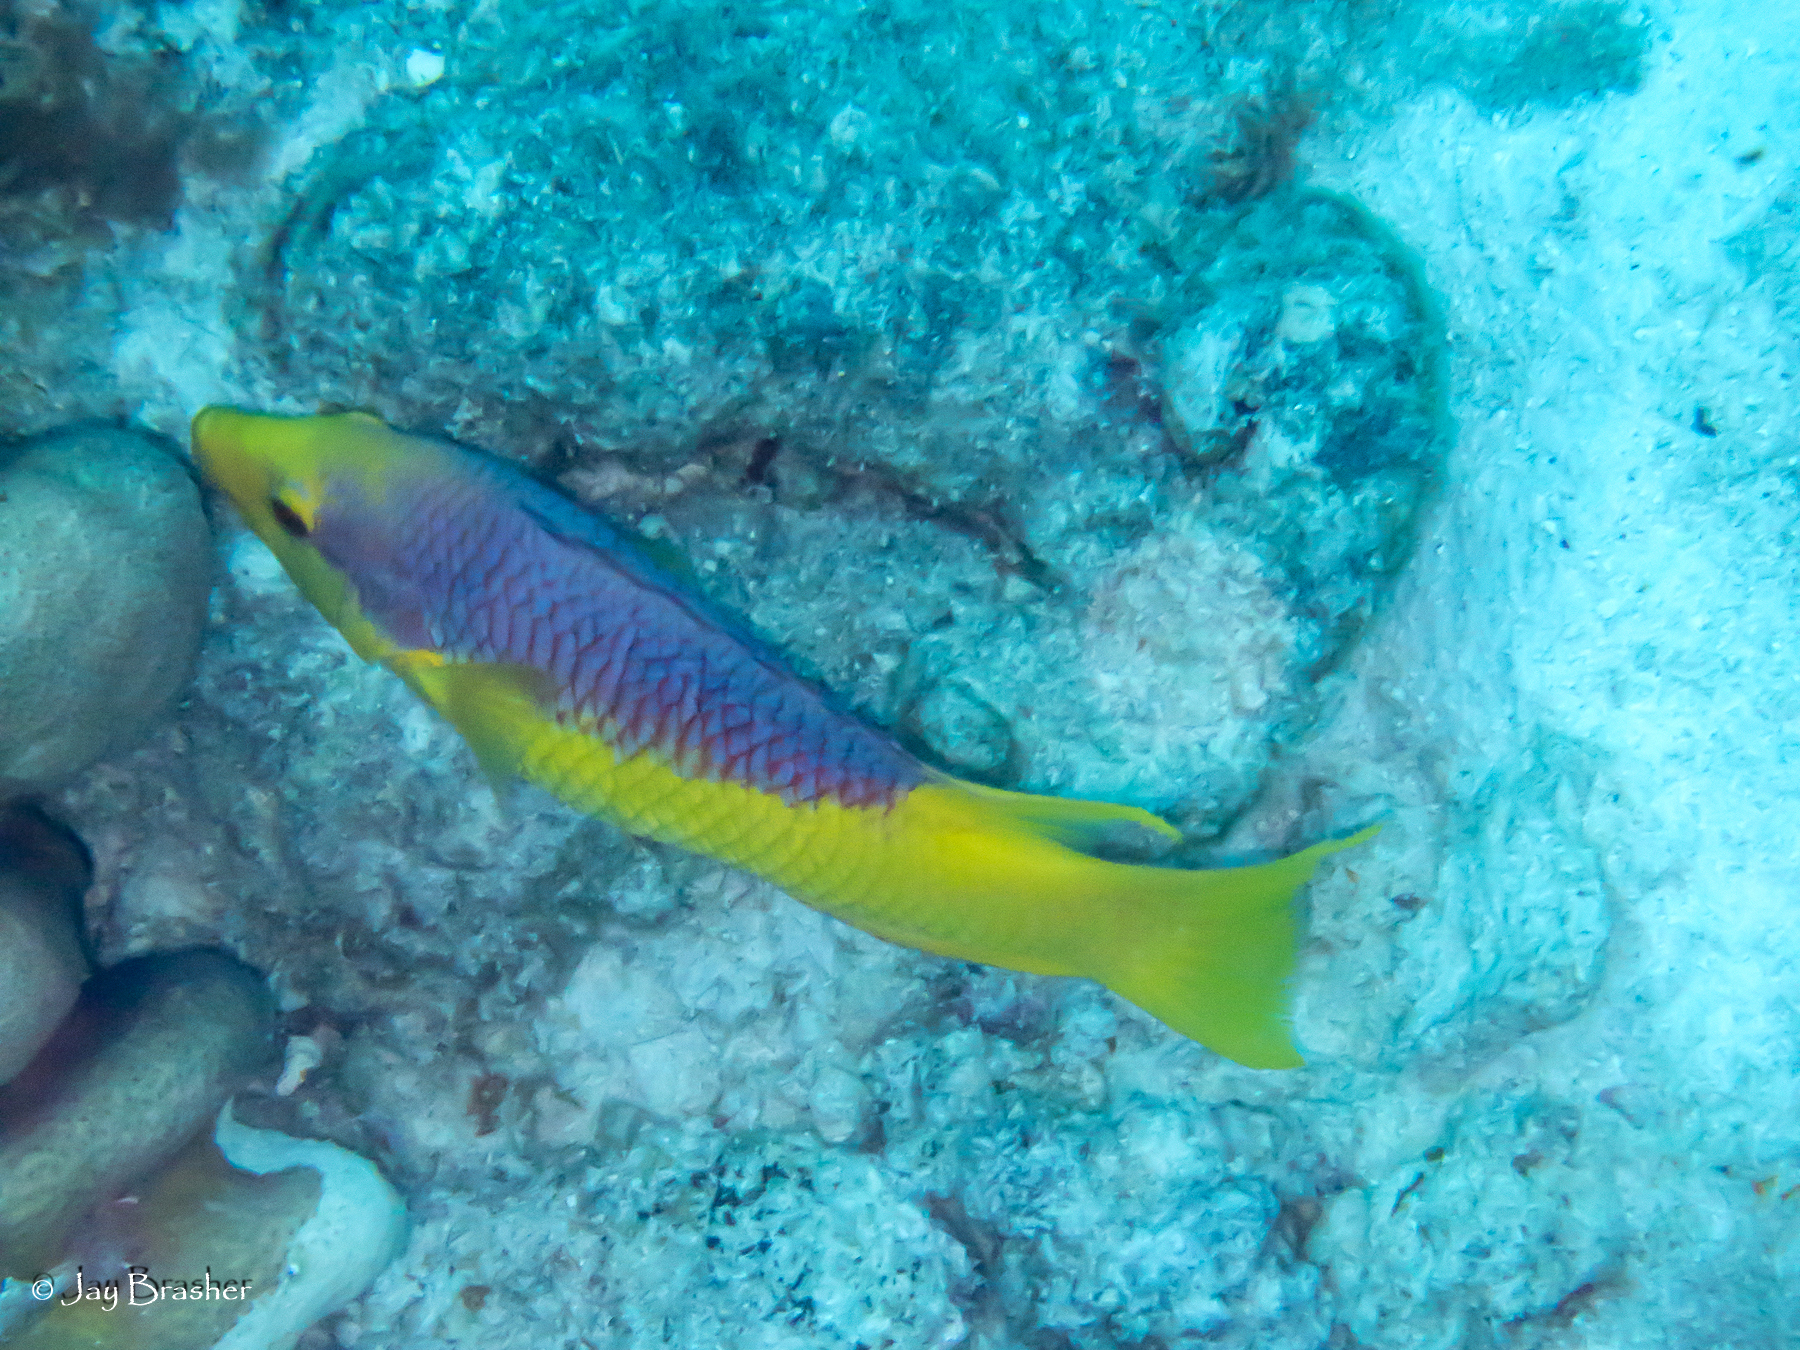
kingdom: Animalia
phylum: Chordata
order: Perciformes
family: Labridae
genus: Bodianus
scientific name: Bodianus rufus
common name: Spanish hogfish
